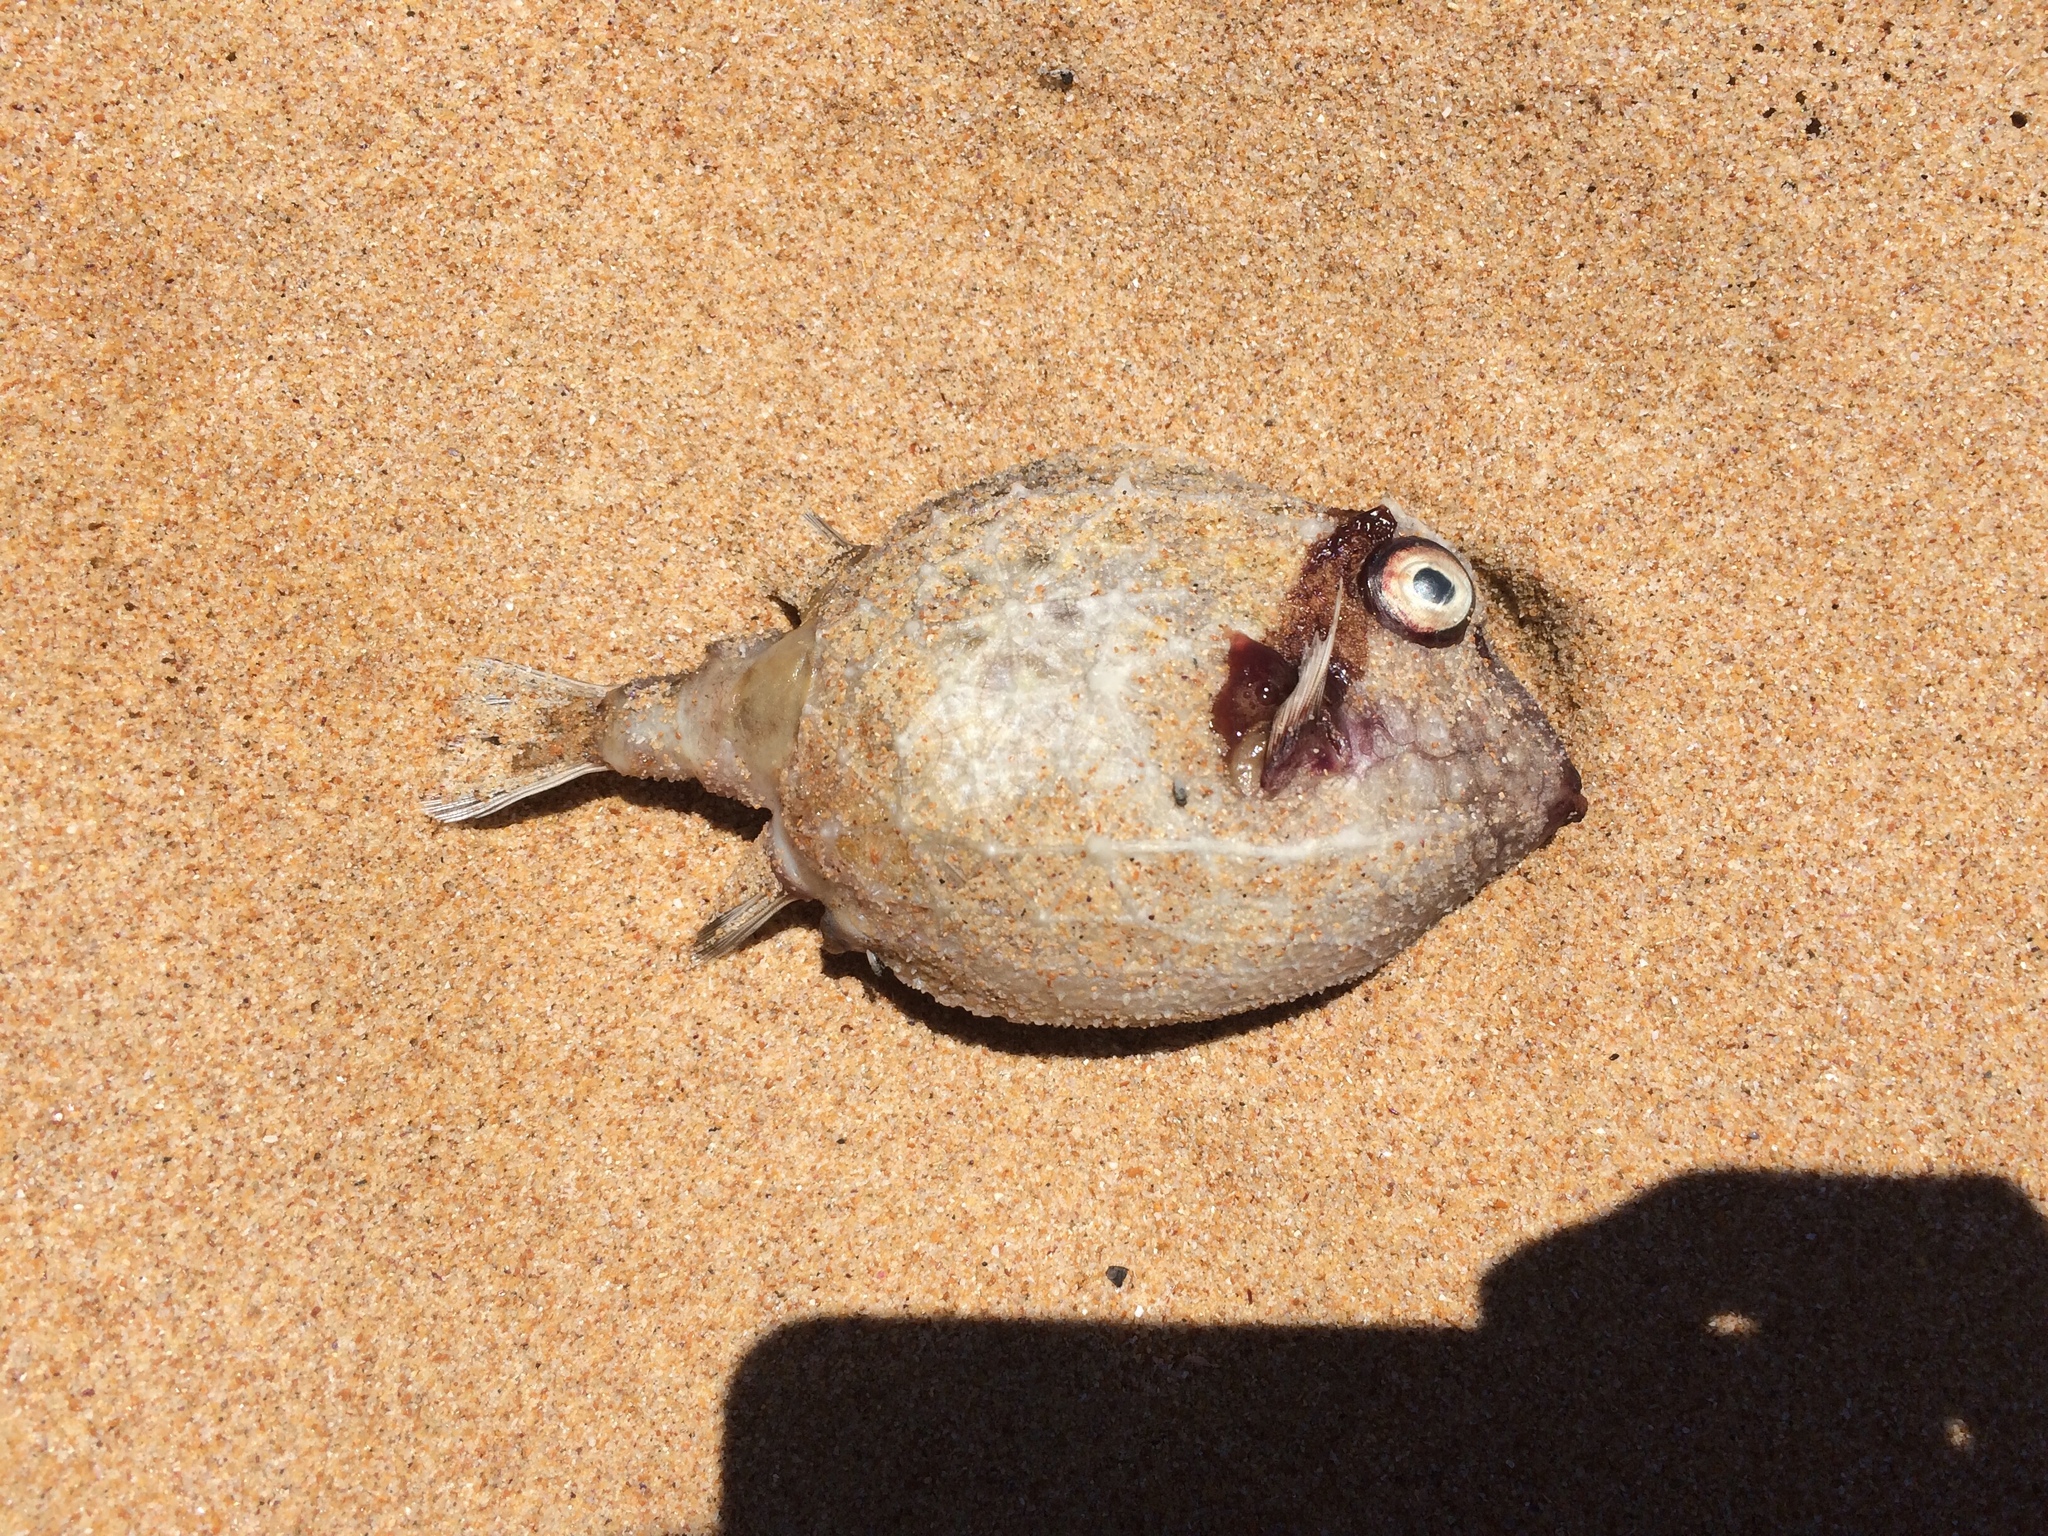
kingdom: Animalia
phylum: Chordata
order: Tetraodontiformes
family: Aracanidae
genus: Anoplocapros
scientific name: Anoplocapros inermis
